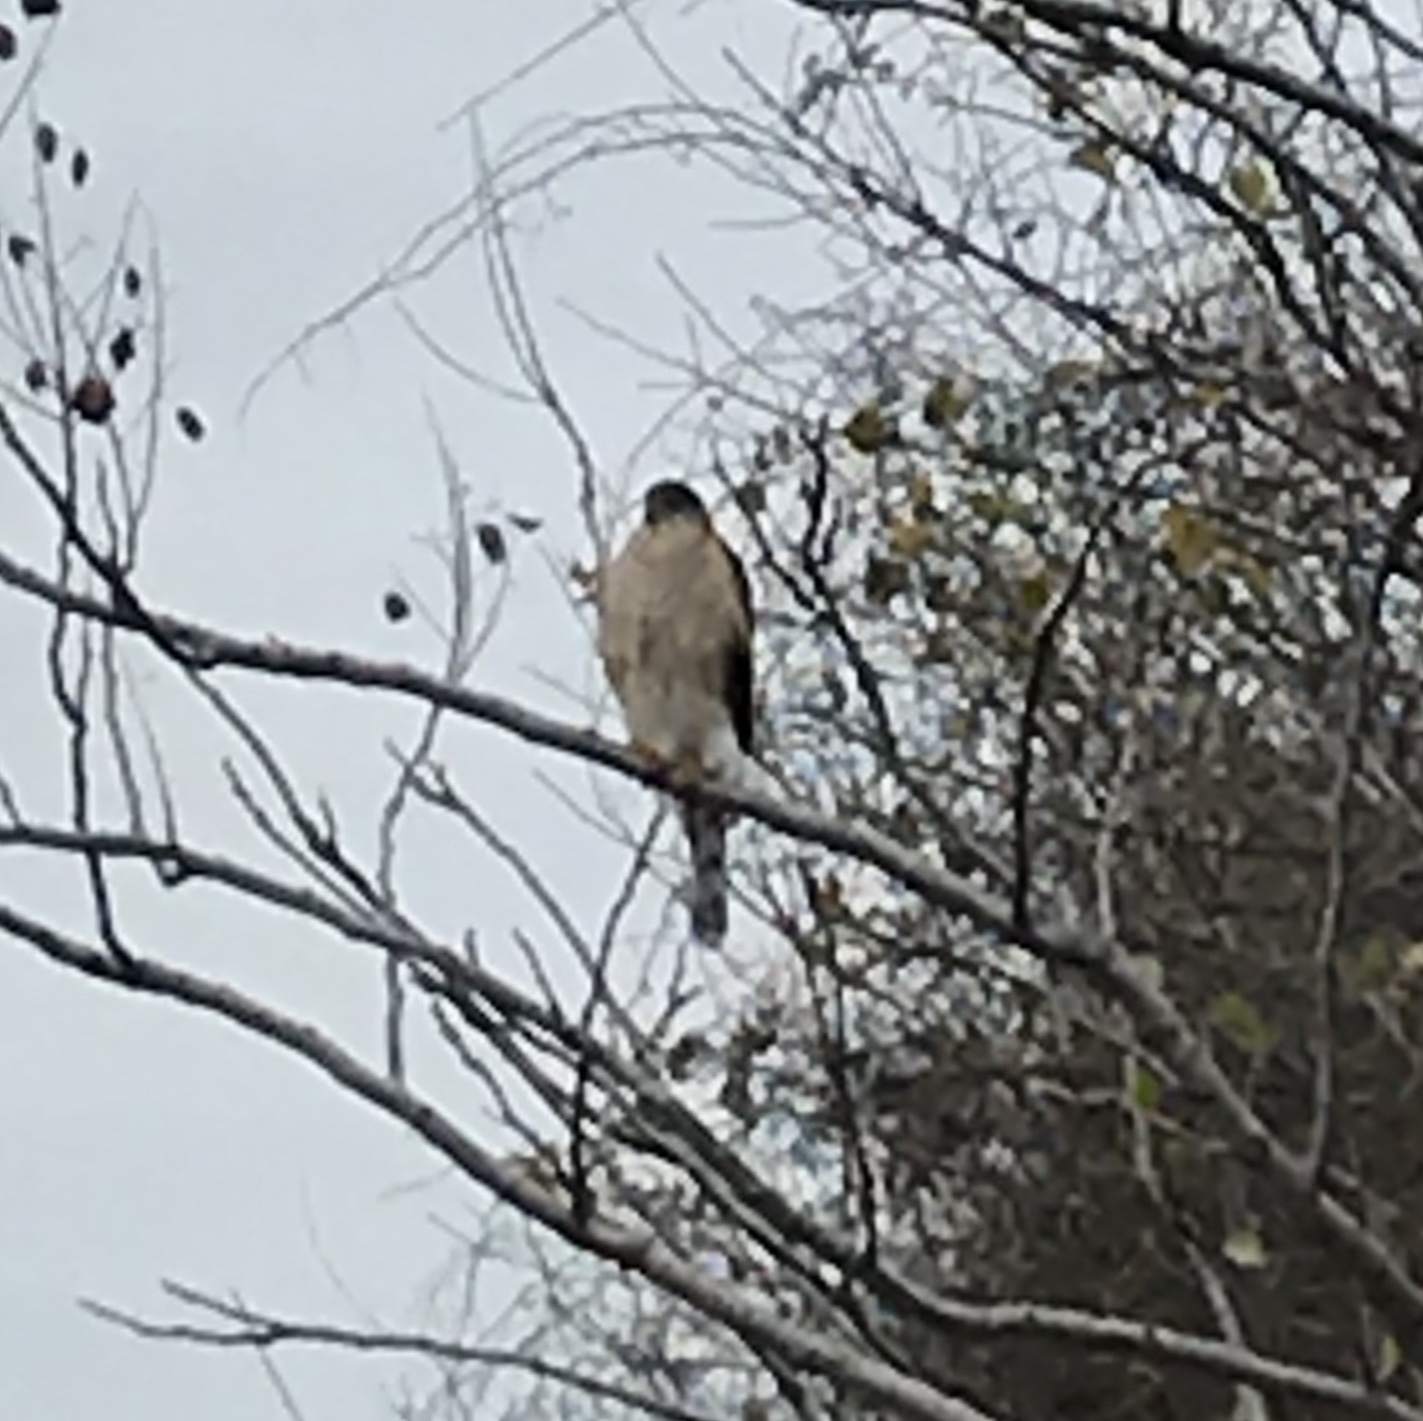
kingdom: Animalia
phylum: Chordata
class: Aves
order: Accipitriformes
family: Accipitridae
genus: Accipiter
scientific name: Accipiter cooperii
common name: Cooper's hawk
